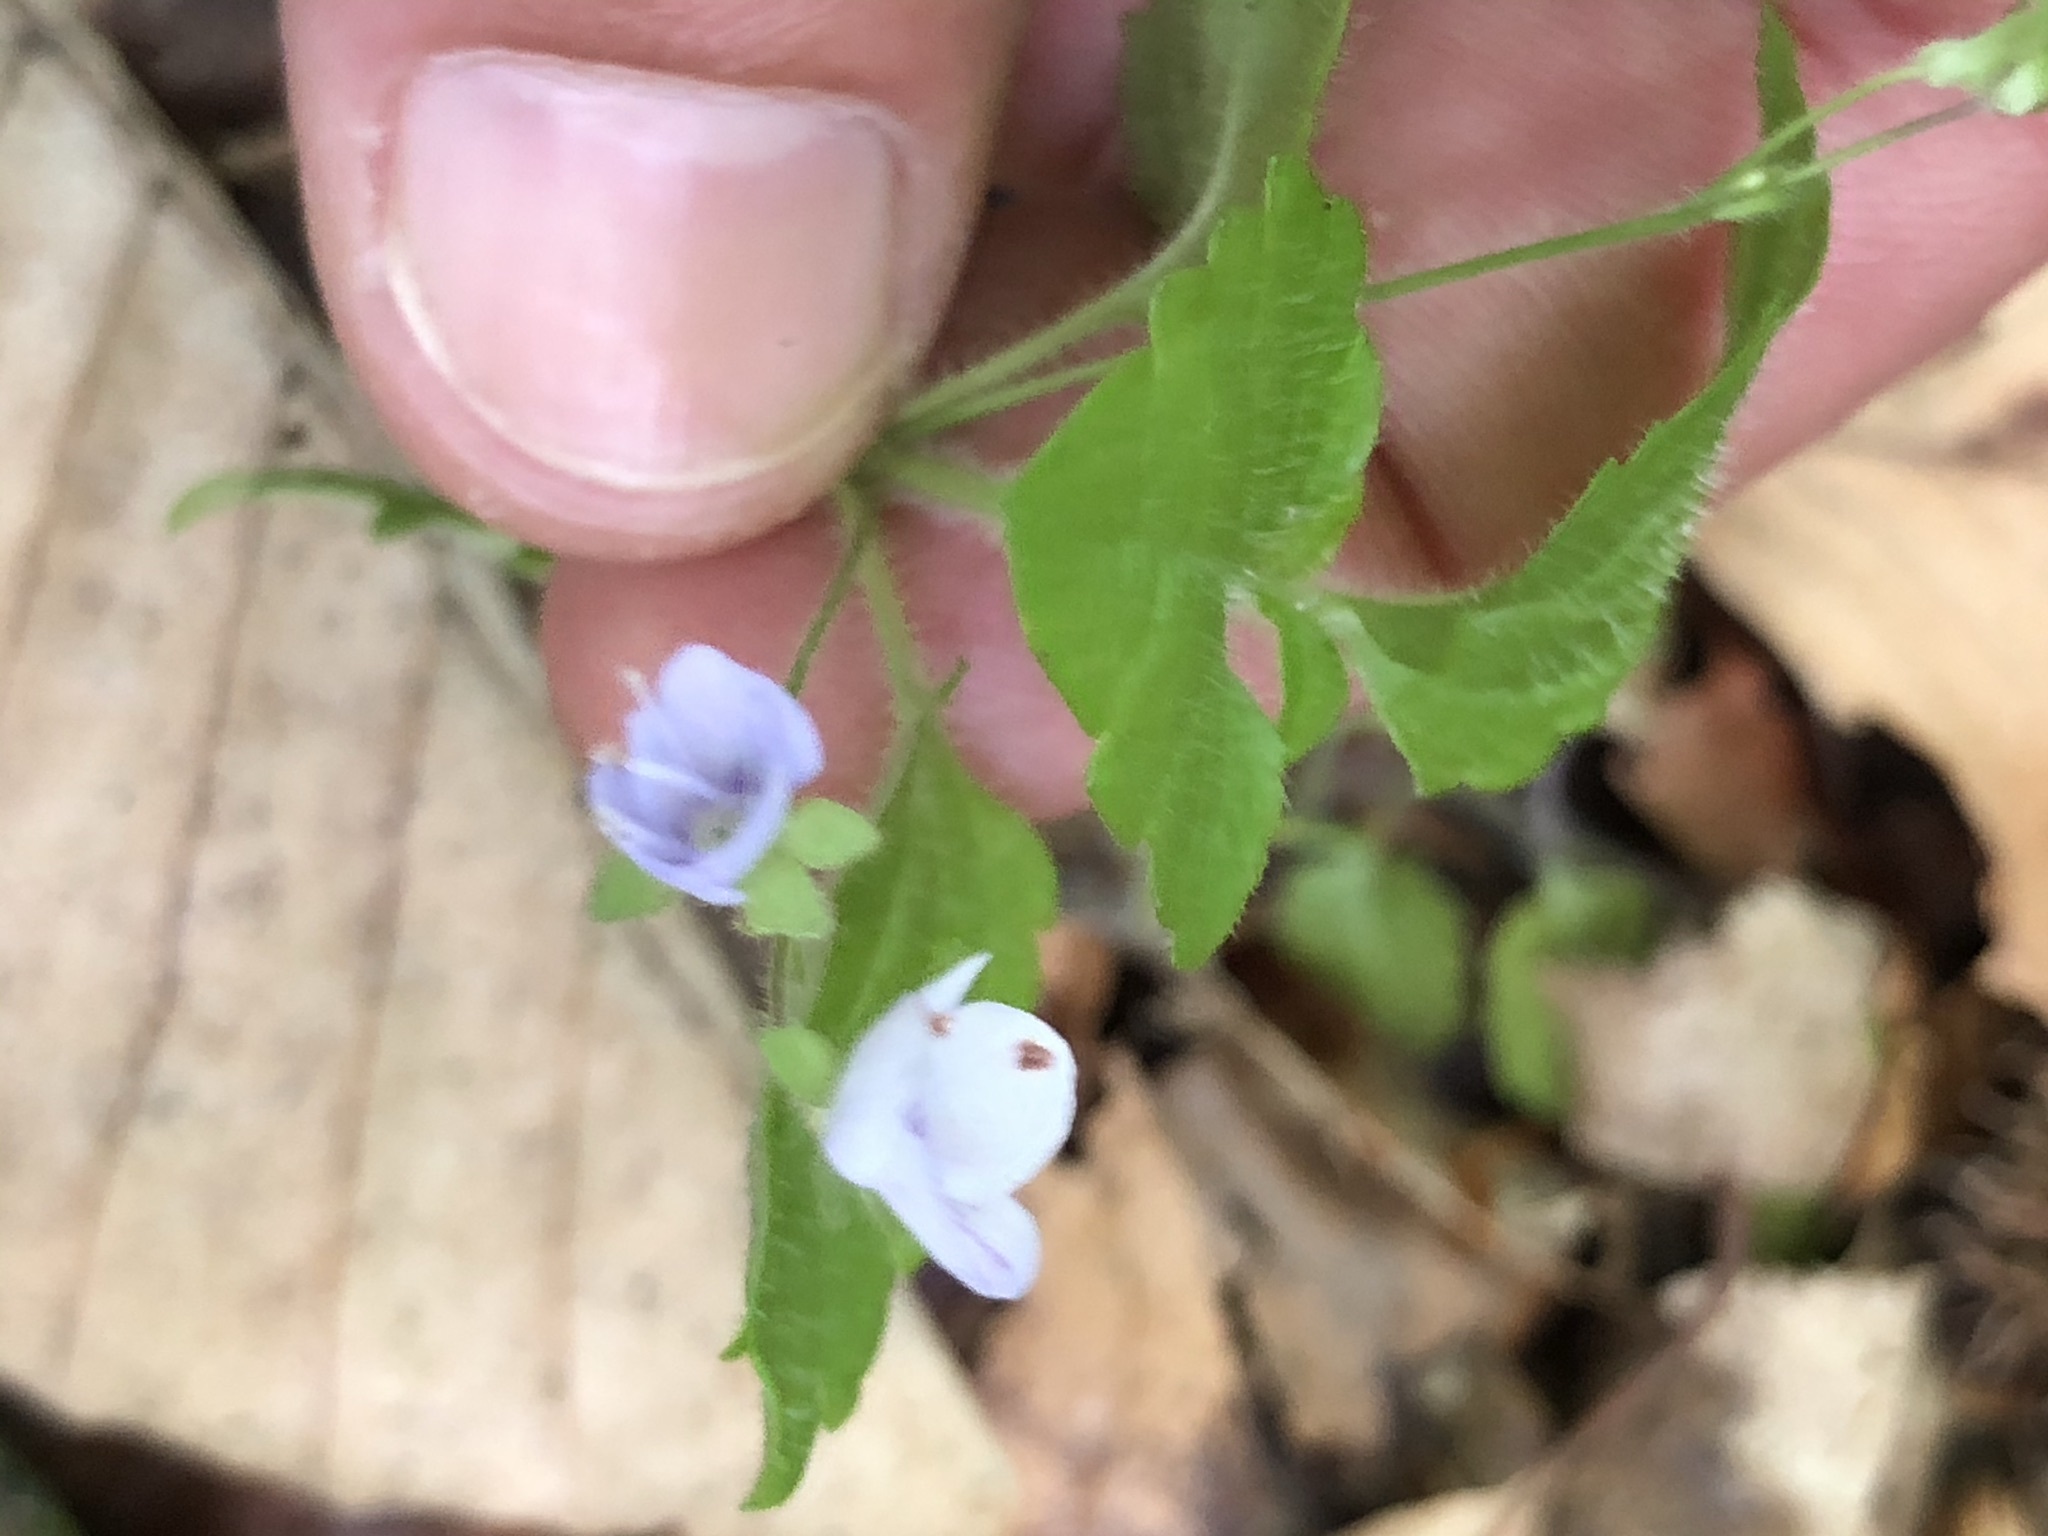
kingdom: Plantae
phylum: Tracheophyta
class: Magnoliopsida
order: Lamiales
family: Plantaginaceae
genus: Veronica
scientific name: Veronica urticifolia
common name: Nettle-leaf speedwell
